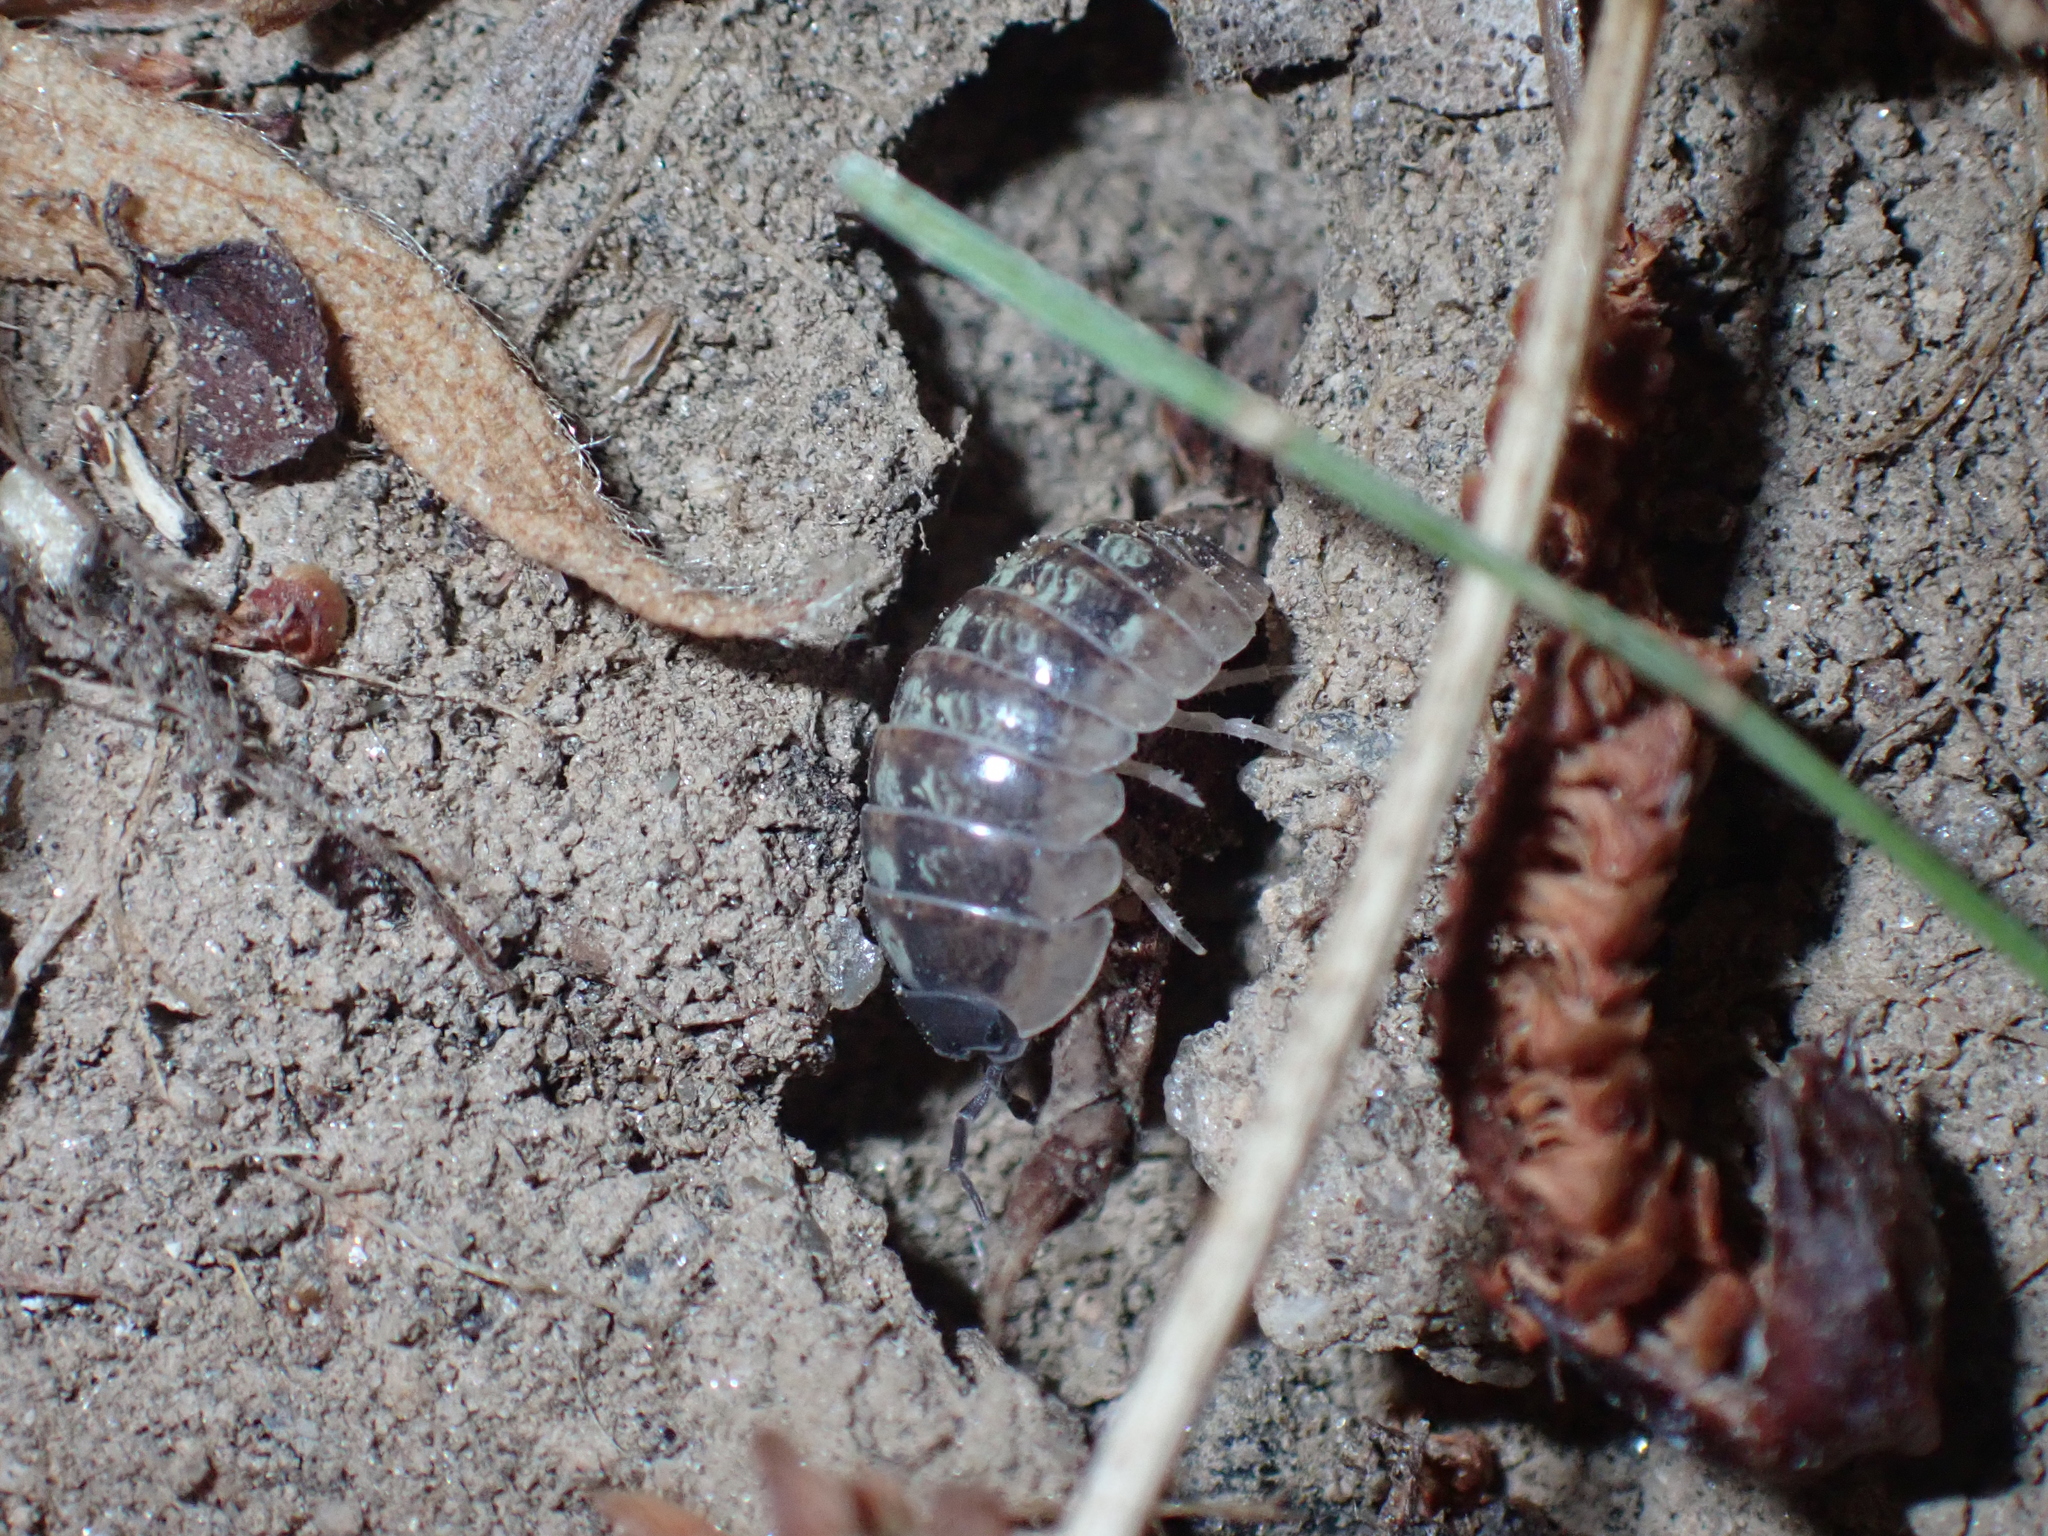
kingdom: Animalia
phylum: Arthropoda
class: Malacostraca
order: Isopoda
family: Armadillidiidae
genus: Armadillidium
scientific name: Armadillidium vulgare
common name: Common pill woodlouse
